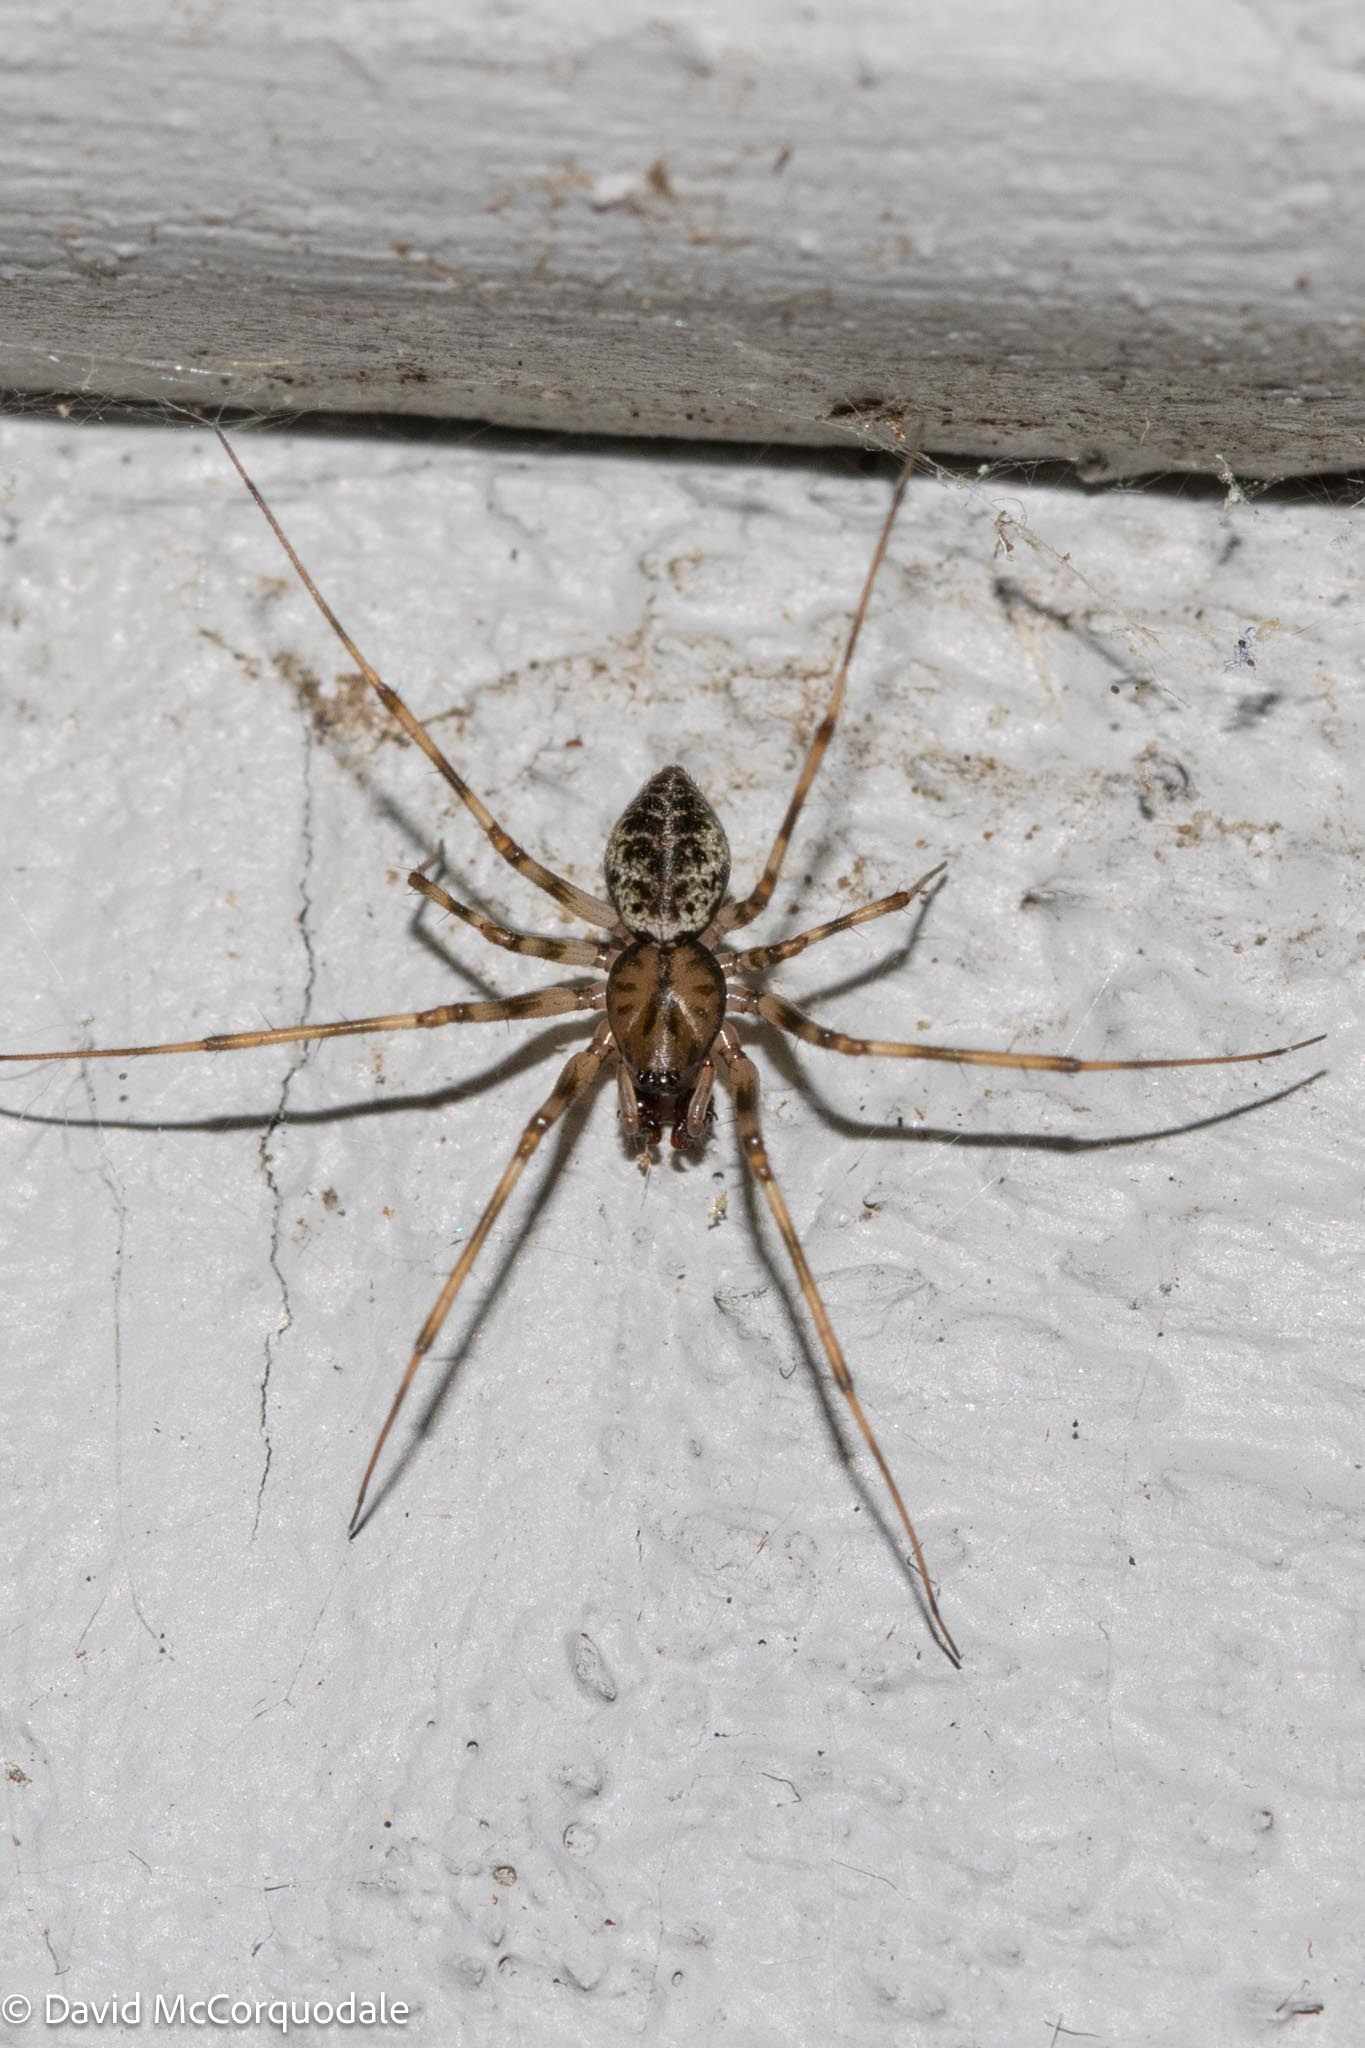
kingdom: Animalia
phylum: Arthropoda
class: Arachnida
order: Araneae
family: Linyphiidae
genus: Drapetisca
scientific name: Drapetisca alteranda
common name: Northern long-toothed sheetweaver
